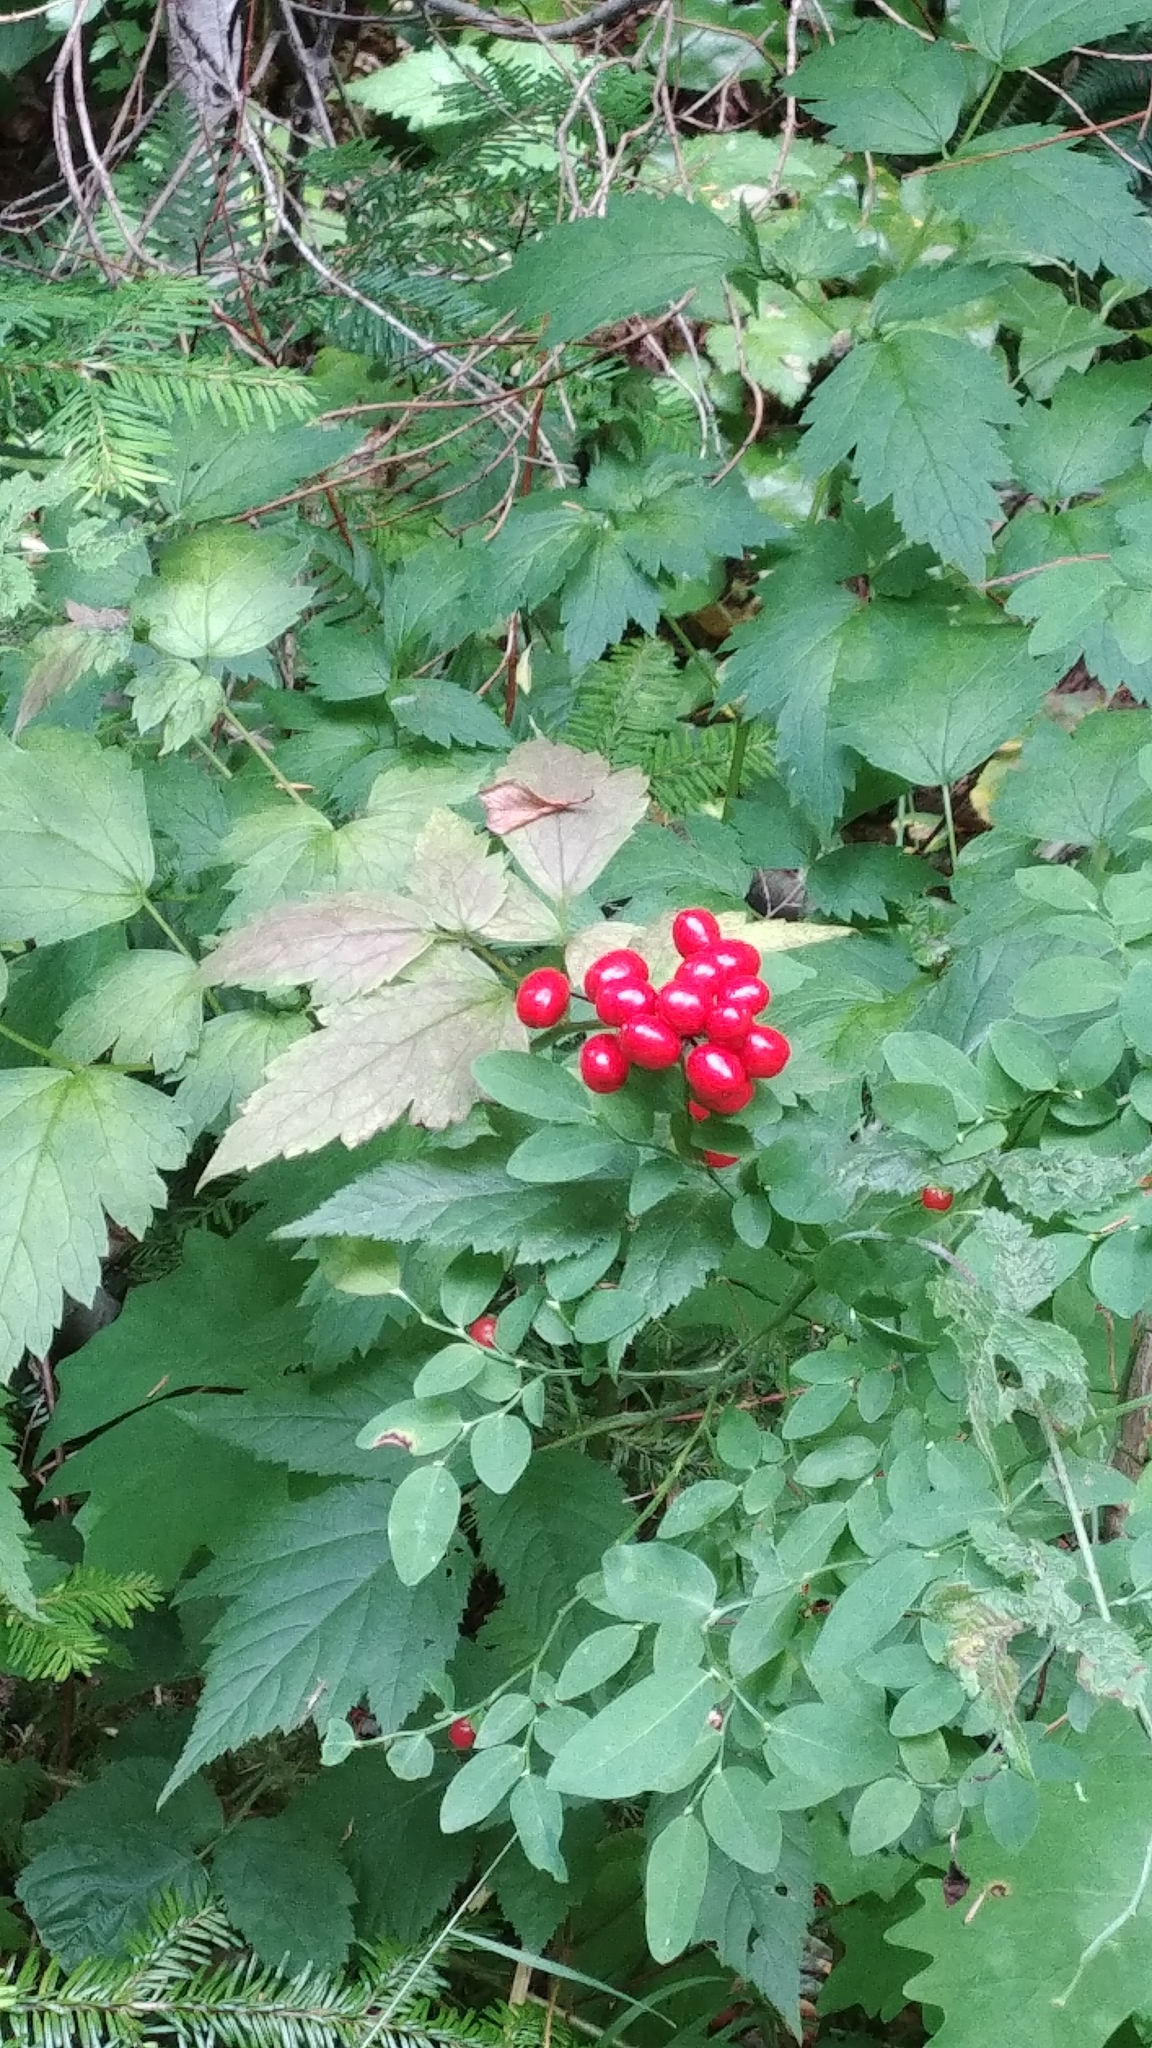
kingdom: Plantae
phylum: Tracheophyta
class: Magnoliopsida
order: Ranunculales
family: Ranunculaceae
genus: Actaea
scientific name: Actaea rubra
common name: Red baneberry
